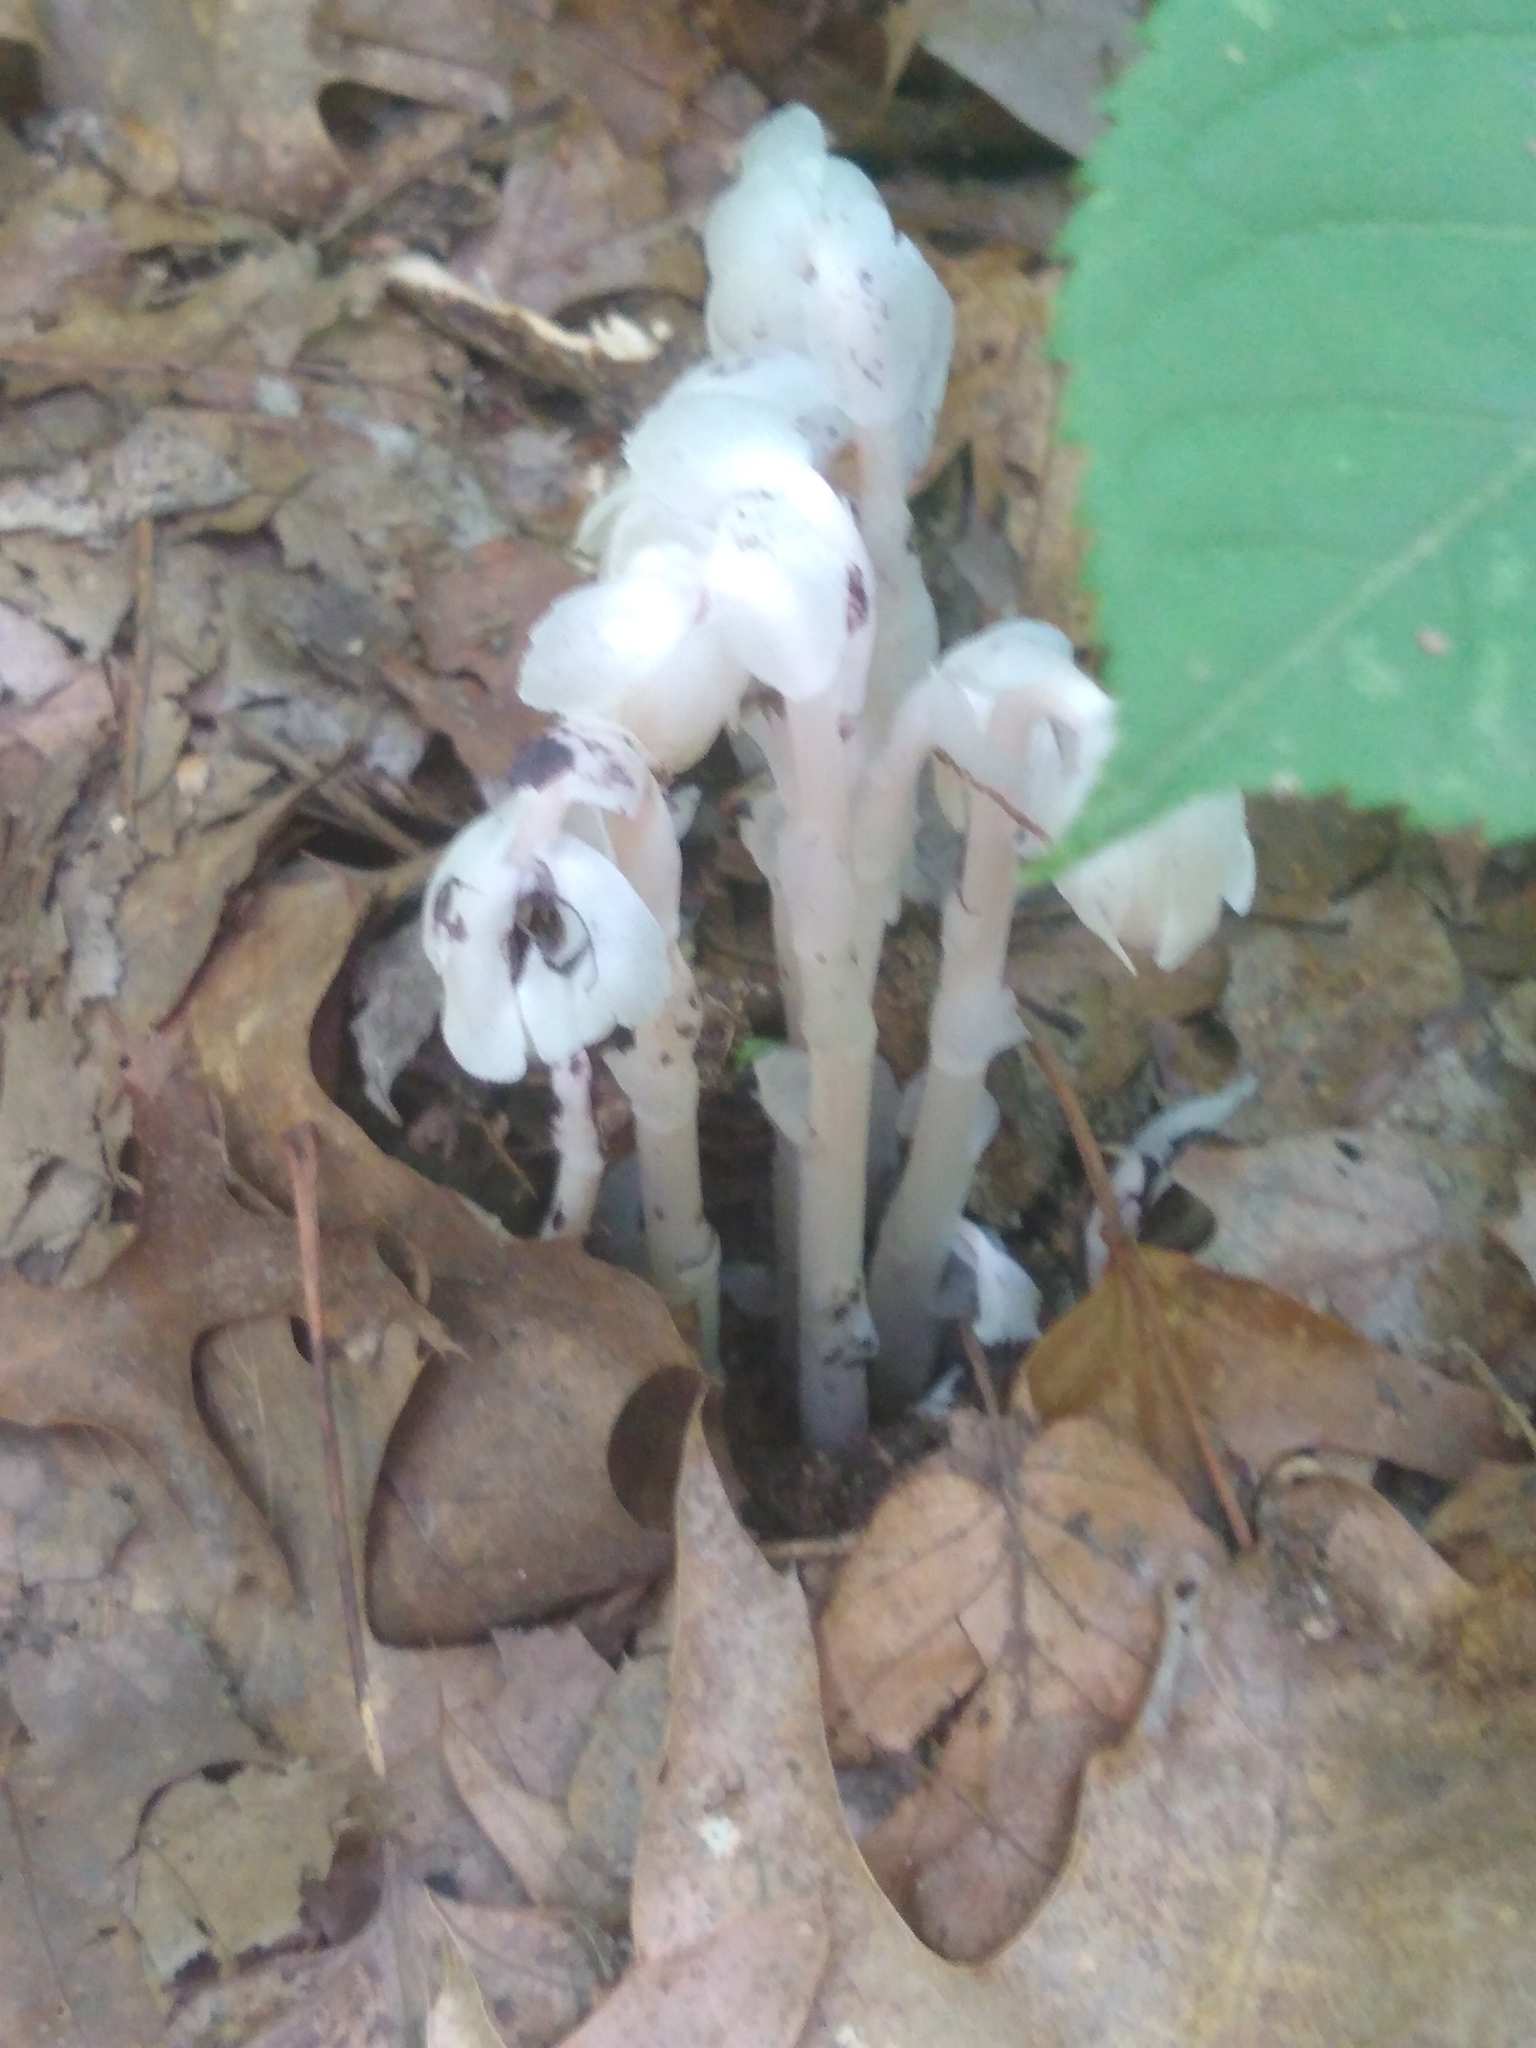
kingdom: Plantae
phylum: Tracheophyta
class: Magnoliopsida
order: Ericales
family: Ericaceae
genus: Monotropa
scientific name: Monotropa uniflora
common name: Convulsion root
